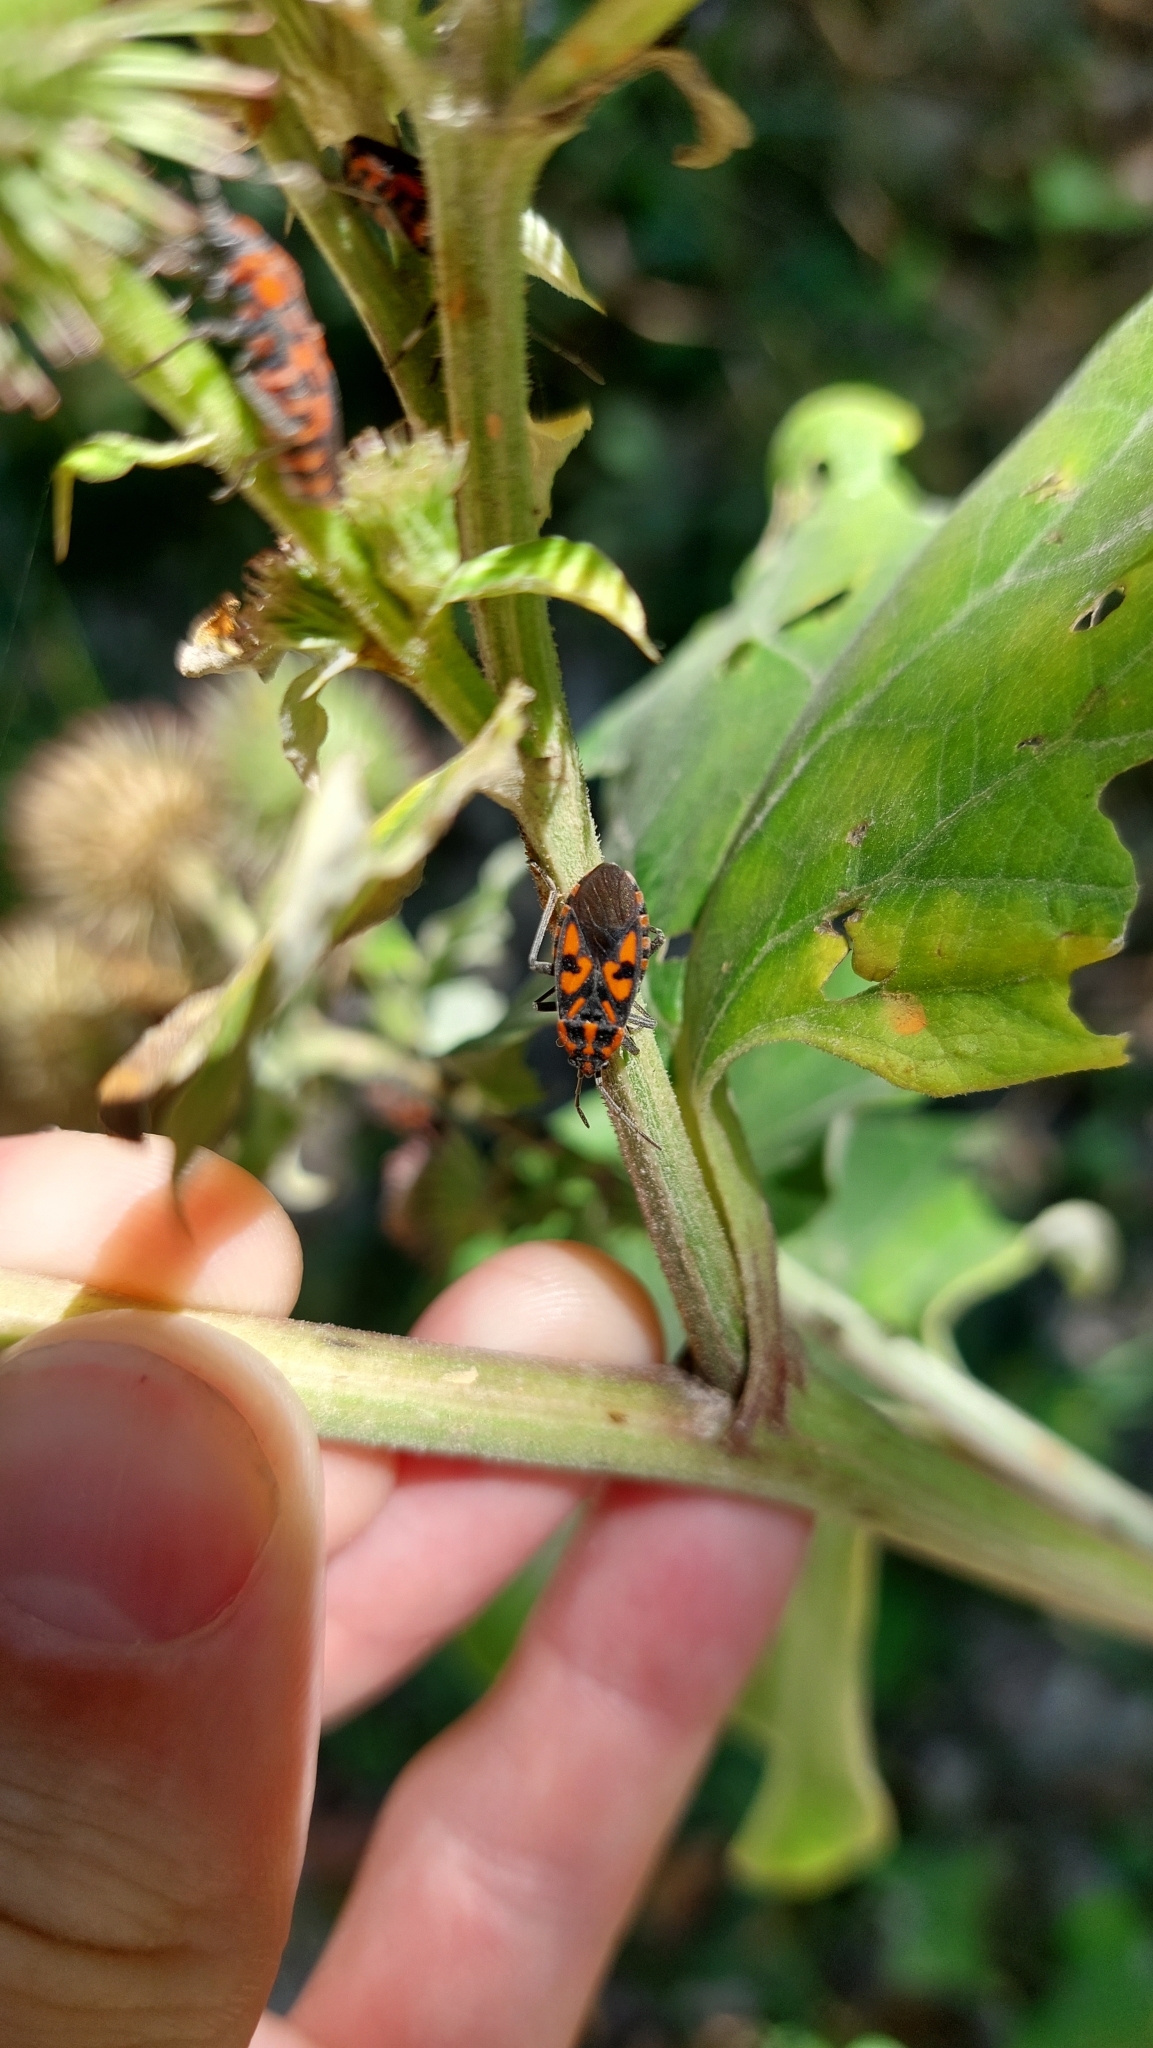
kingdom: Animalia
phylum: Arthropoda
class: Insecta
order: Hemiptera
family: Lygaeidae
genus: Spilostethus
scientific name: Spilostethus saxatilis
